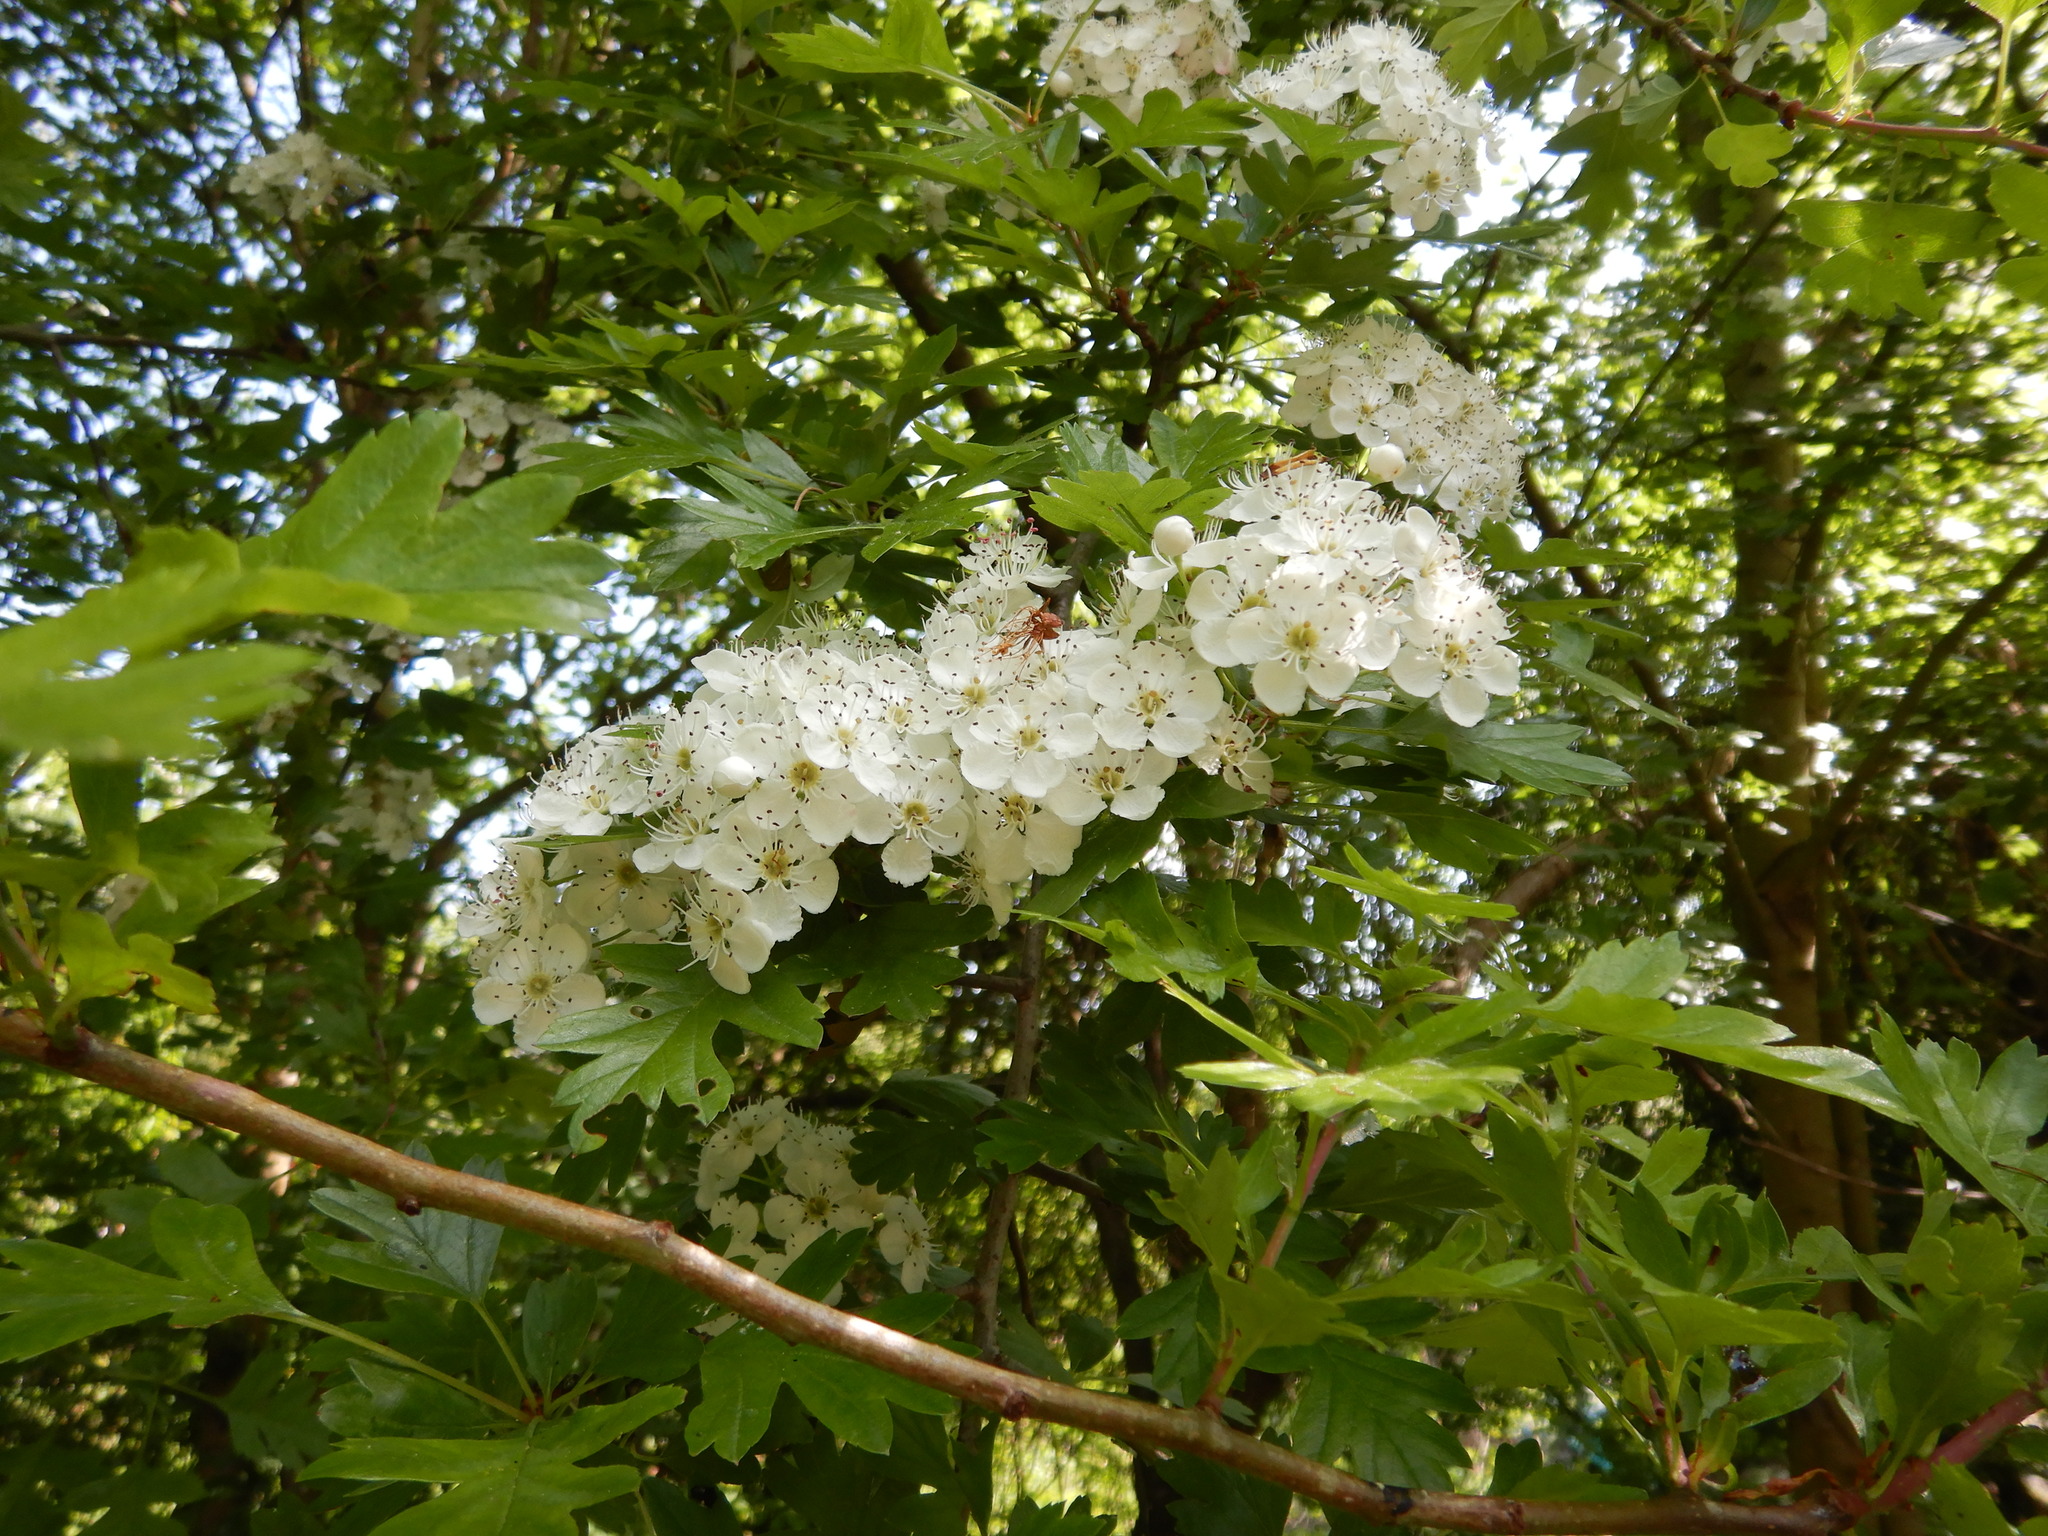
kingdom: Plantae
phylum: Tracheophyta
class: Magnoliopsida
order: Rosales
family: Rosaceae
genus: Crataegus
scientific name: Crataegus monogyna
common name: Hawthorn
